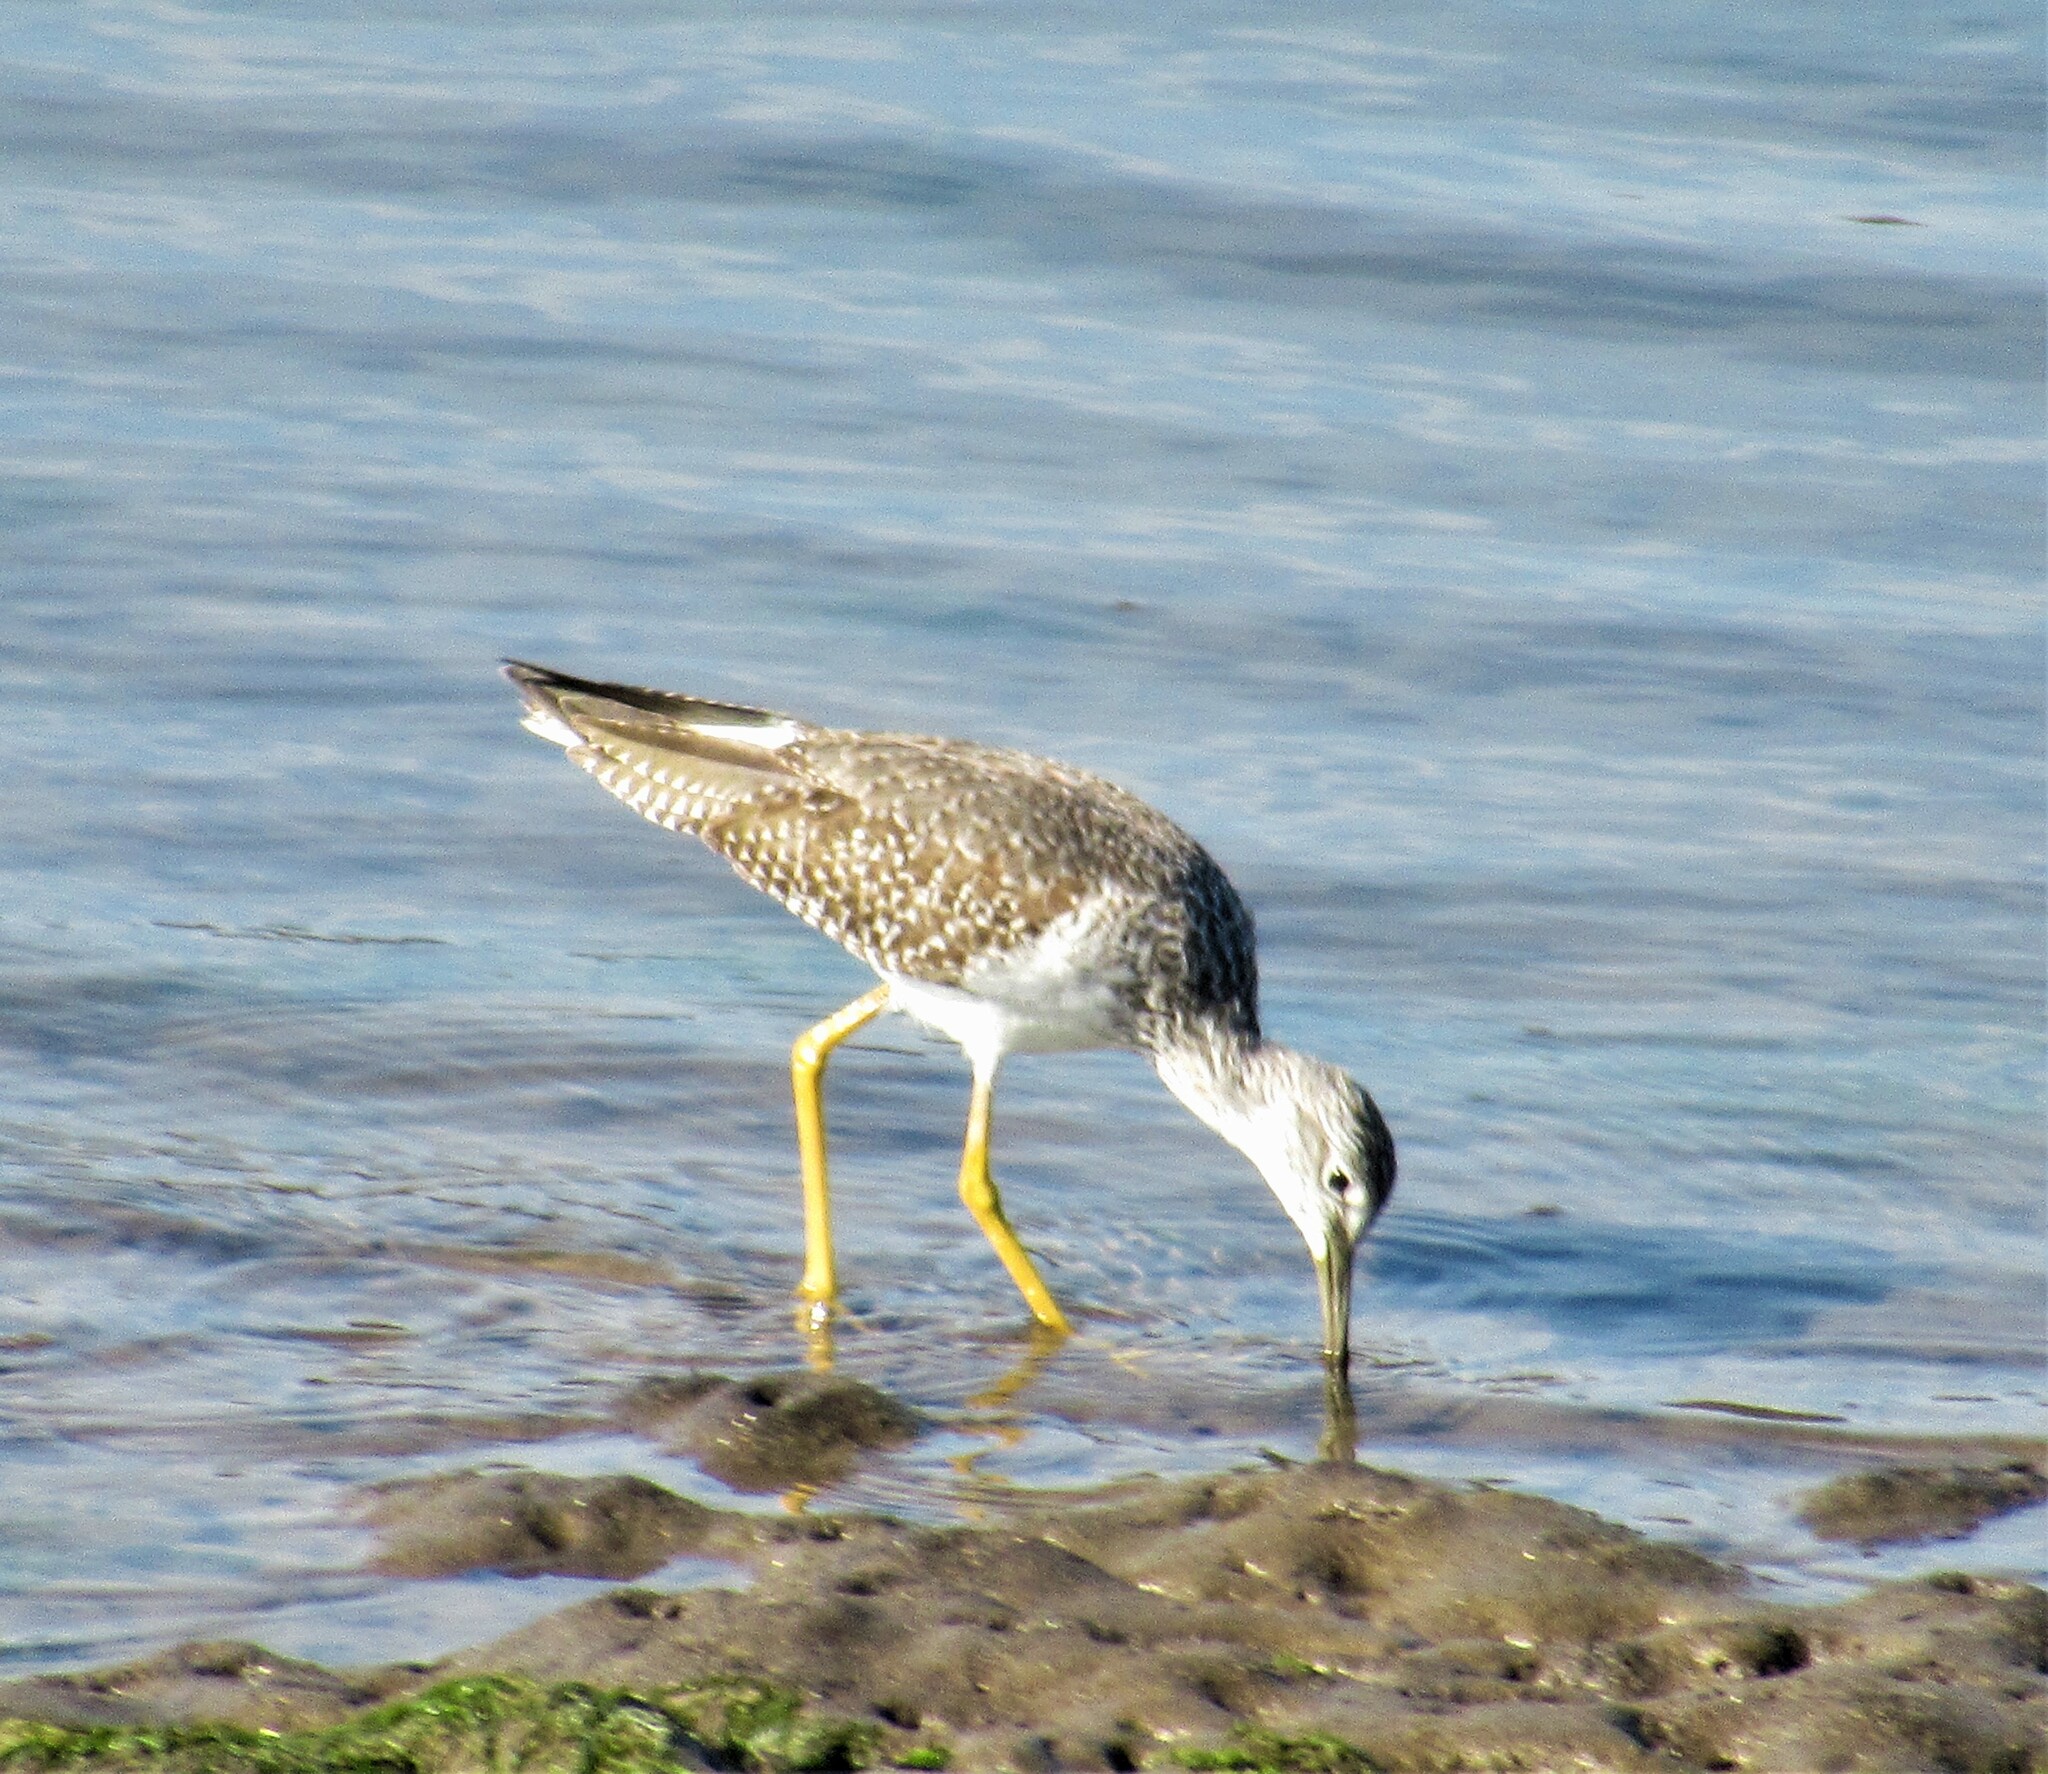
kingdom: Animalia
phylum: Chordata
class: Aves
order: Charadriiformes
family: Scolopacidae
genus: Tringa
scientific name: Tringa melanoleuca
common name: Greater yellowlegs
